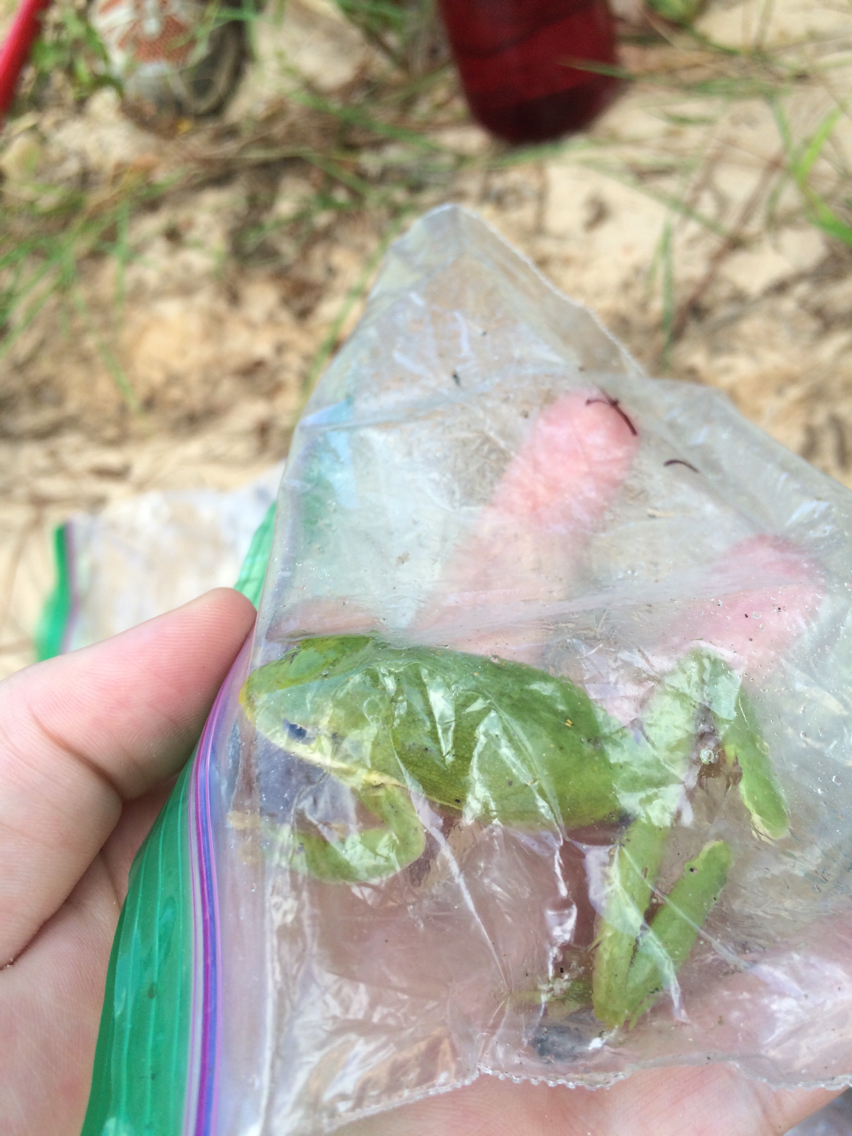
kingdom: Animalia
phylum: Chordata
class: Amphibia
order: Anura
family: Hylidae
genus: Dryophytes
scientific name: Dryophytes cinereus
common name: Green treefrog
